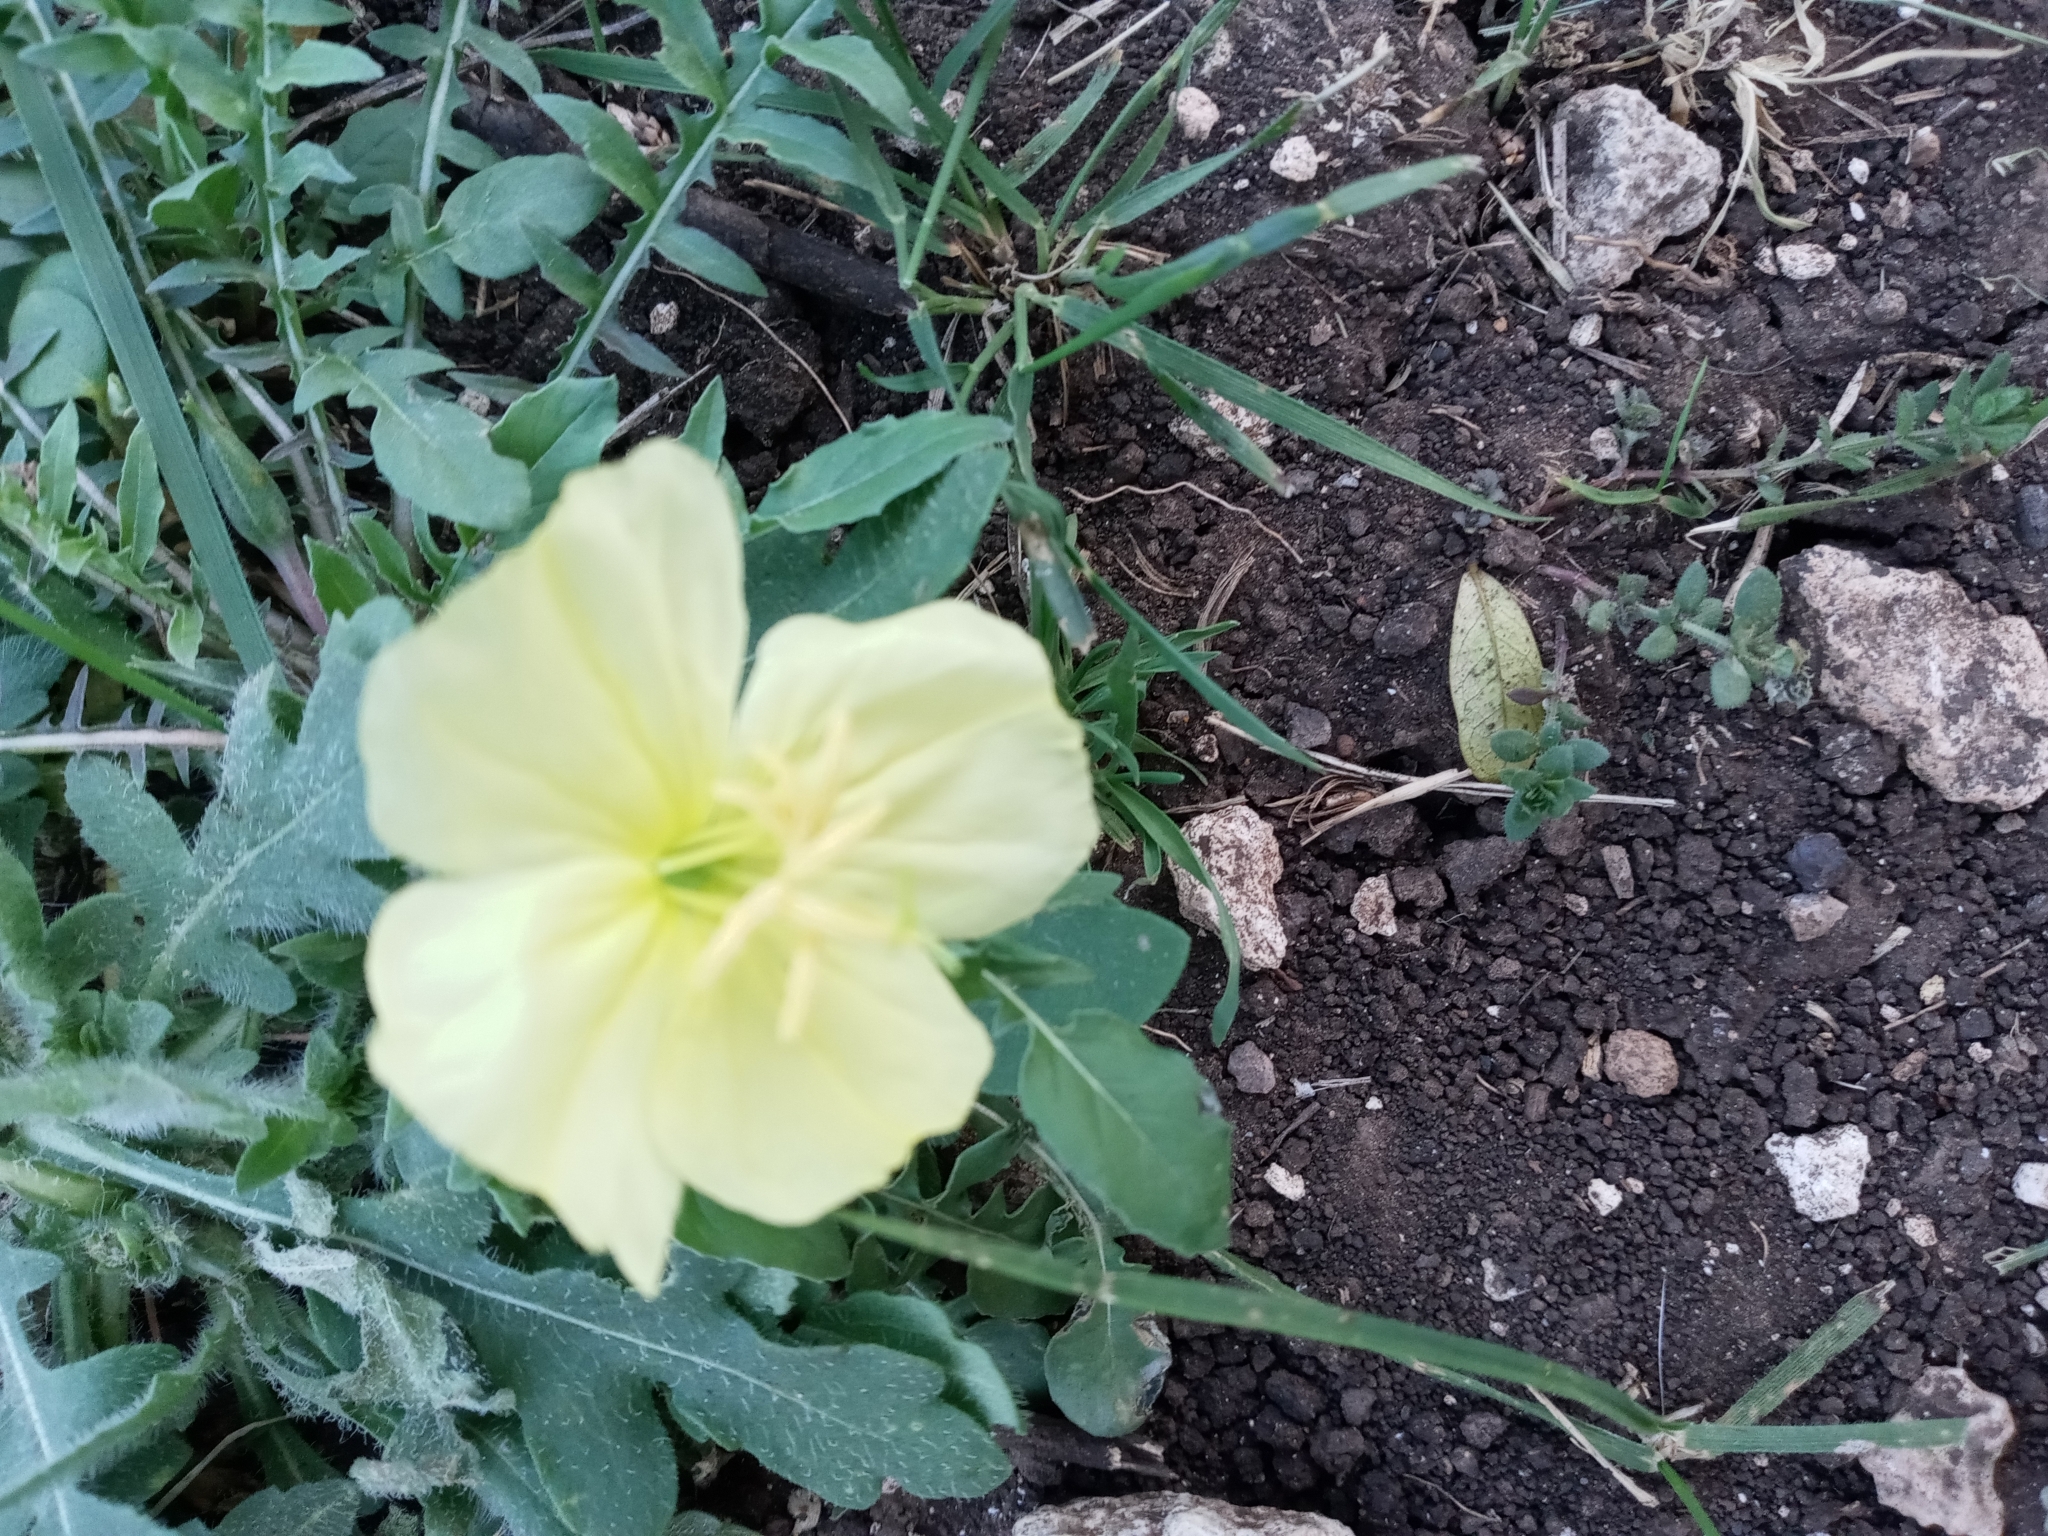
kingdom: Plantae
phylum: Tracheophyta
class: Magnoliopsida
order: Myrtales
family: Onagraceae
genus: Oenothera
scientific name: Oenothera triloba
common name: Sessile evening-primrose
